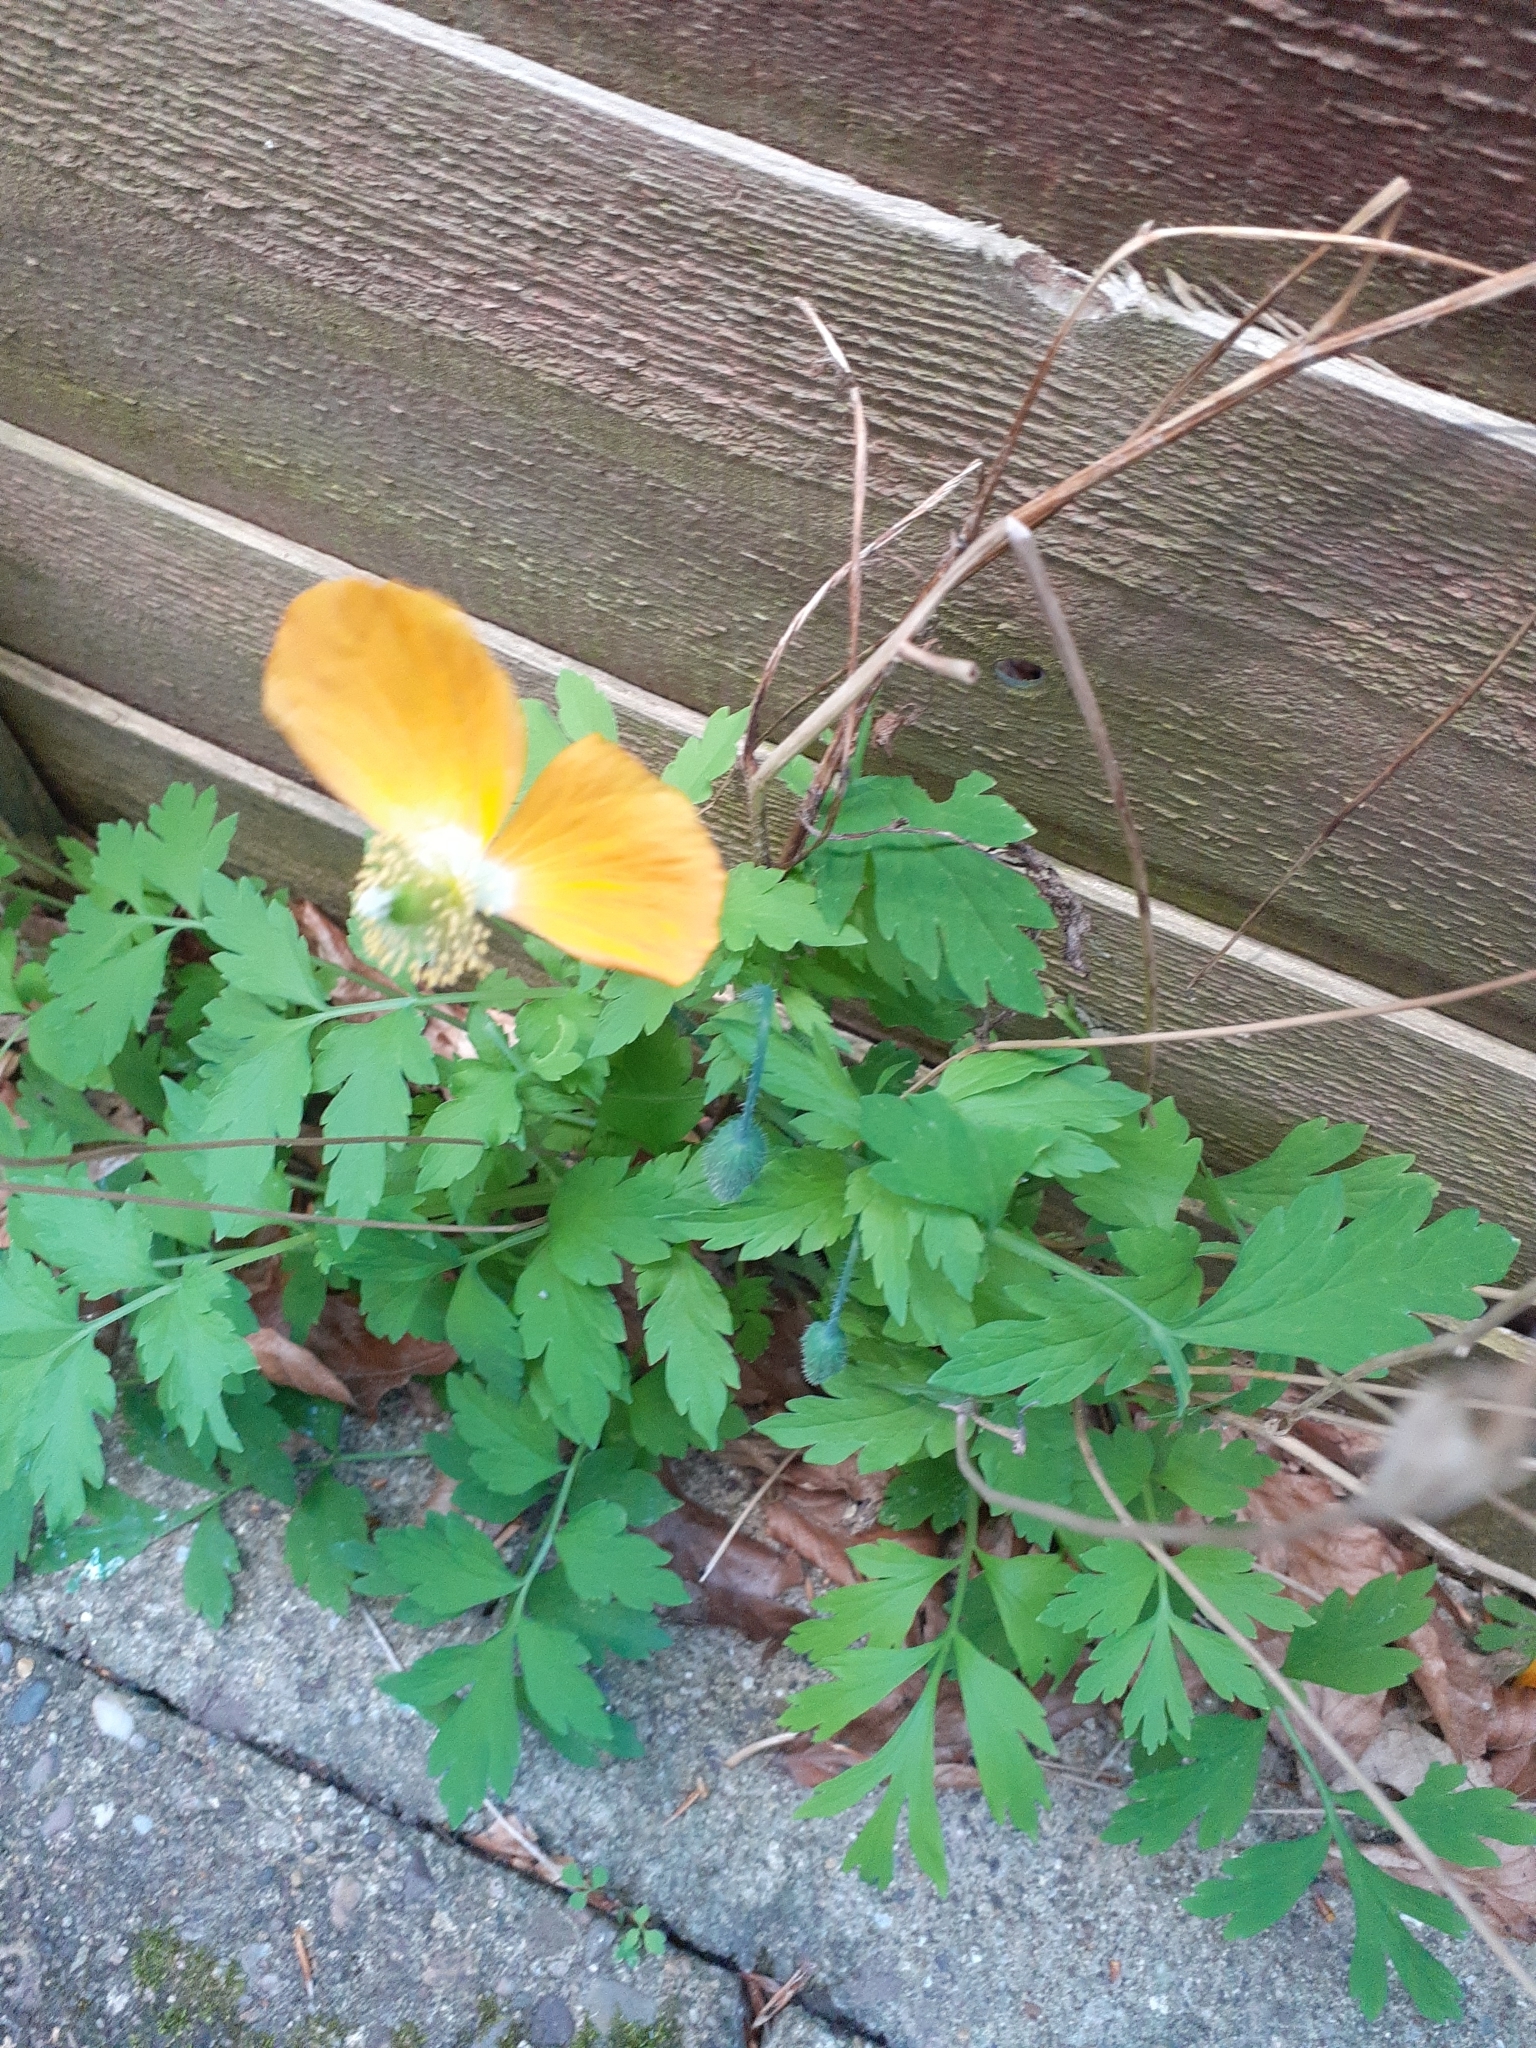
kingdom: Plantae
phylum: Tracheophyta
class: Magnoliopsida
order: Ranunculales
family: Papaveraceae
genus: Papaver
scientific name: Papaver cambricum
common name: Poppy
